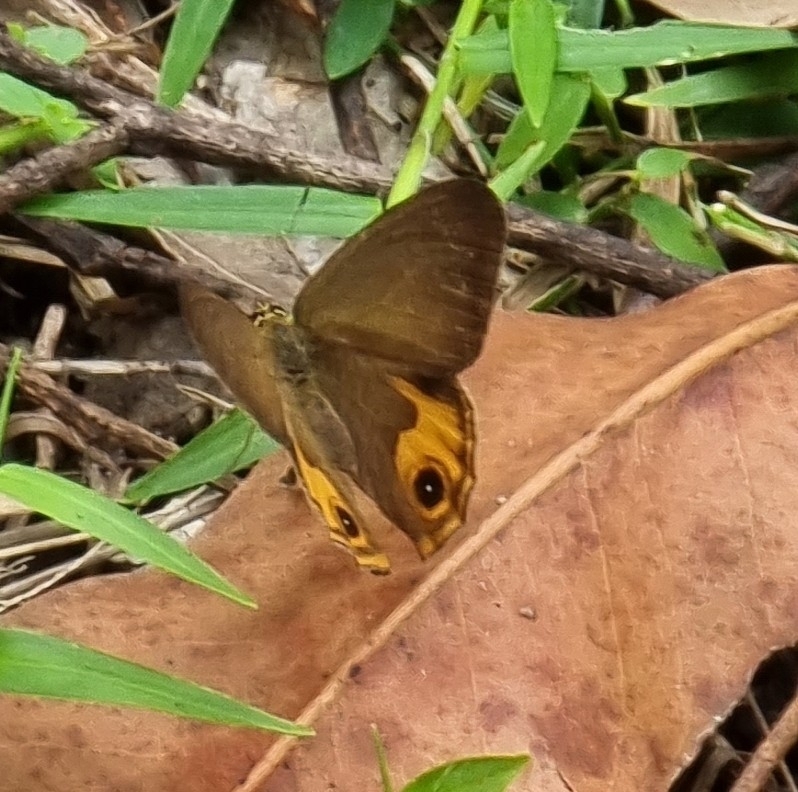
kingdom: Animalia
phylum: Arthropoda
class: Insecta
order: Lepidoptera
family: Nymphalidae
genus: Hypocysta
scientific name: Hypocysta metirius
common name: Brown ringlet
